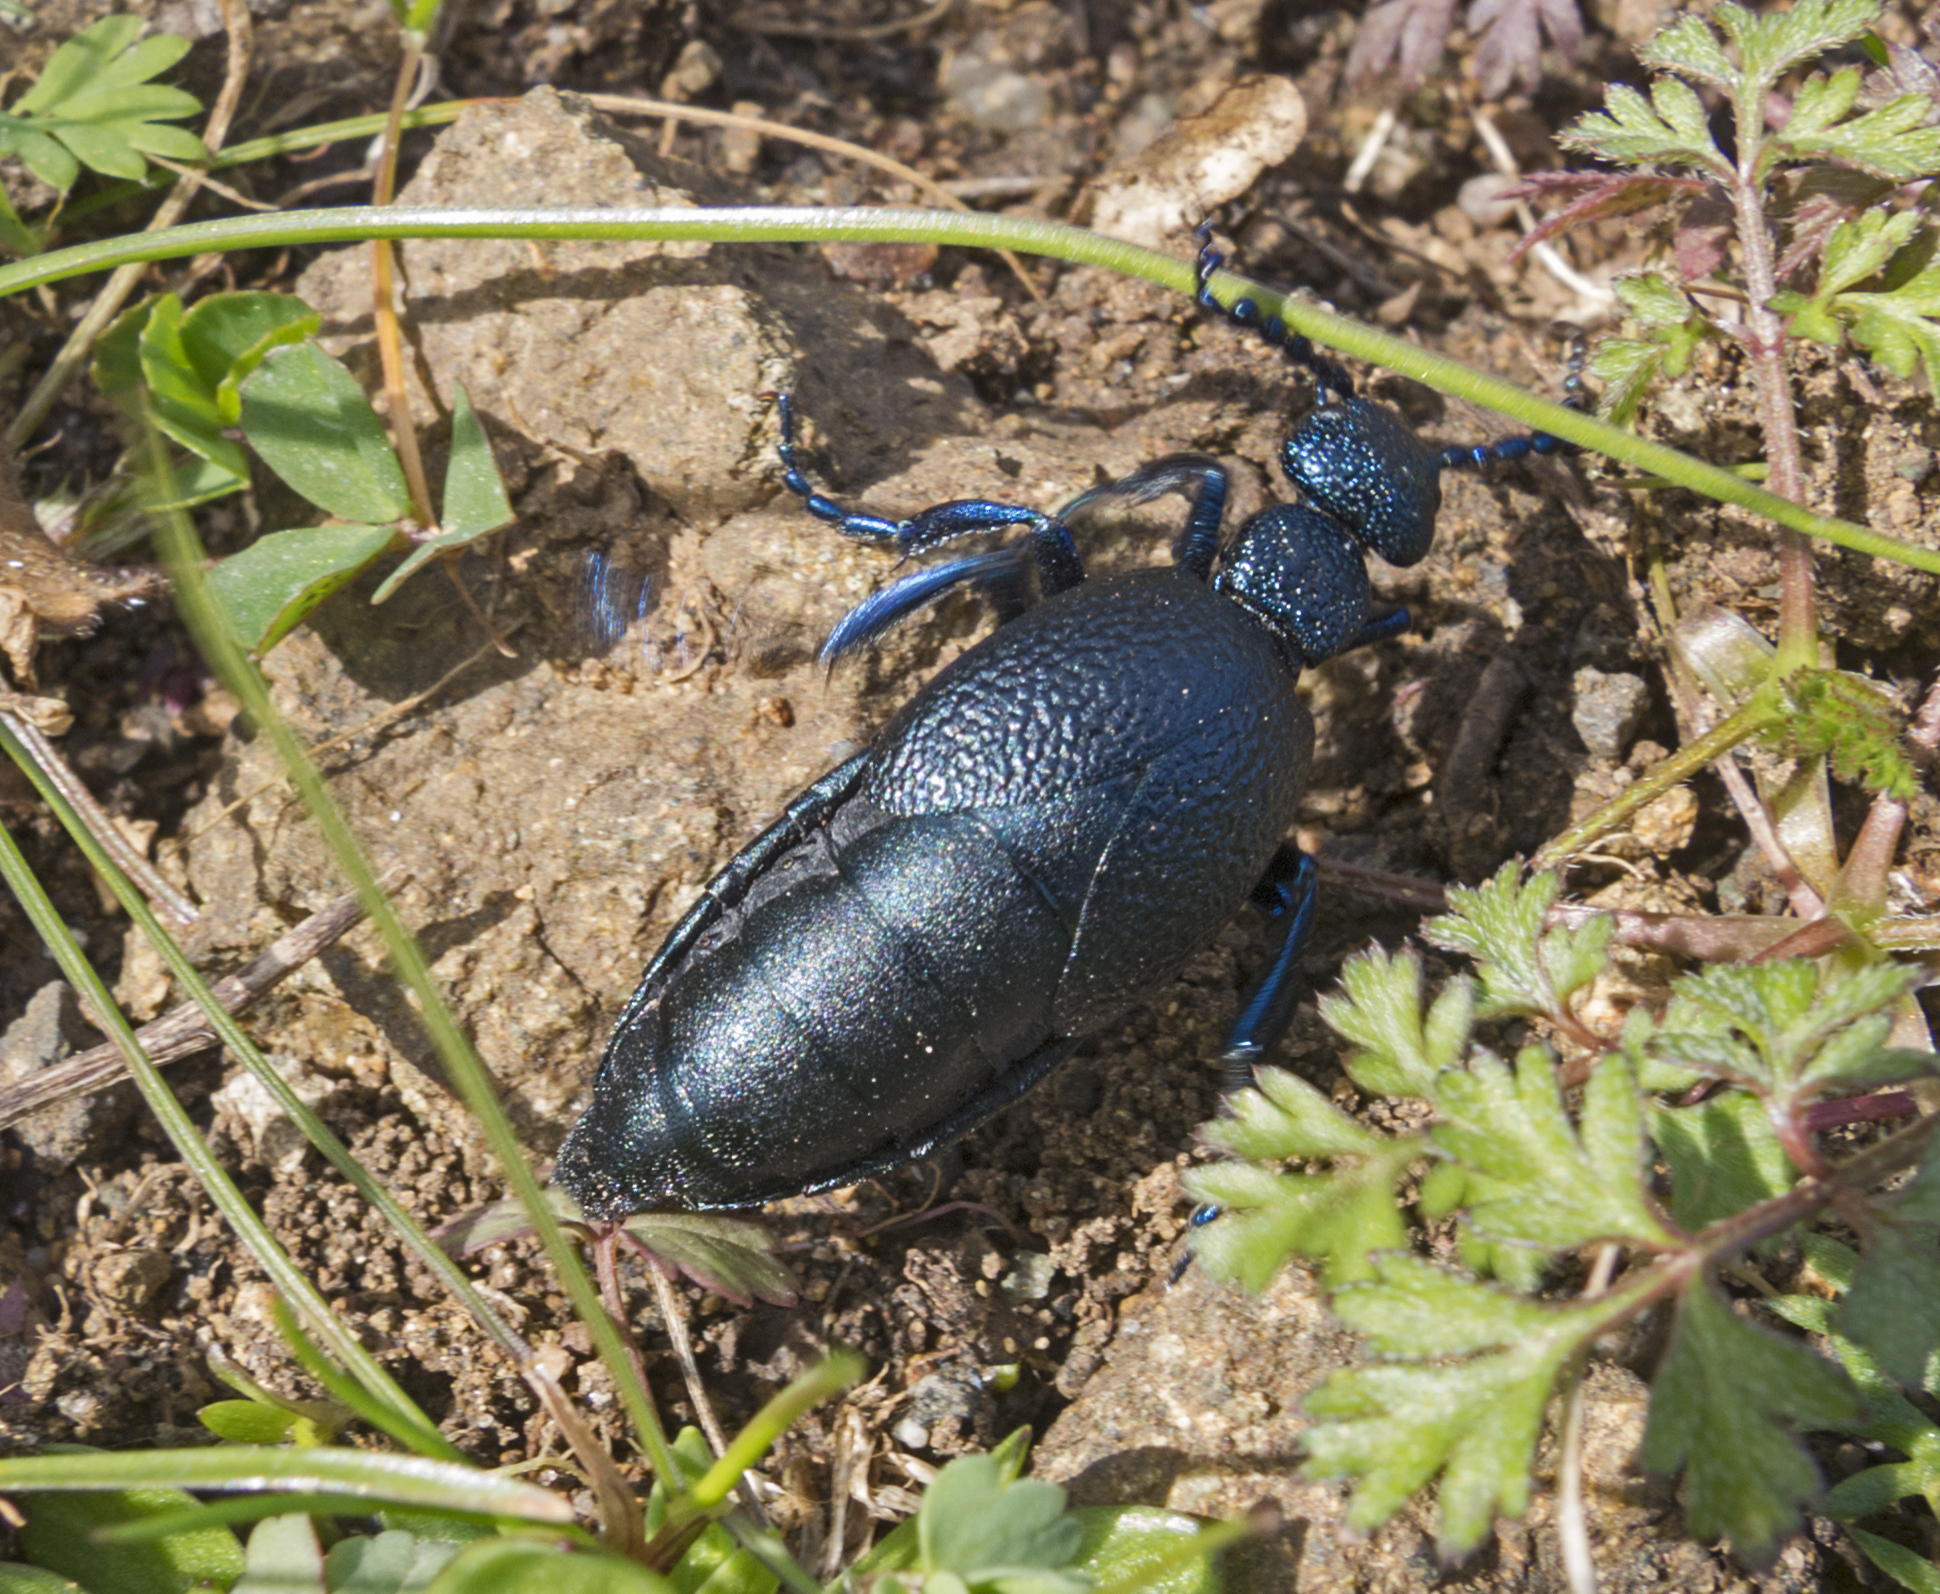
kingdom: Animalia
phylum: Arthropoda
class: Insecta
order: Coleoptera
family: Meloidae
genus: Meloe
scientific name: Meloe proscarabaeus
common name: Black oil-beetle
